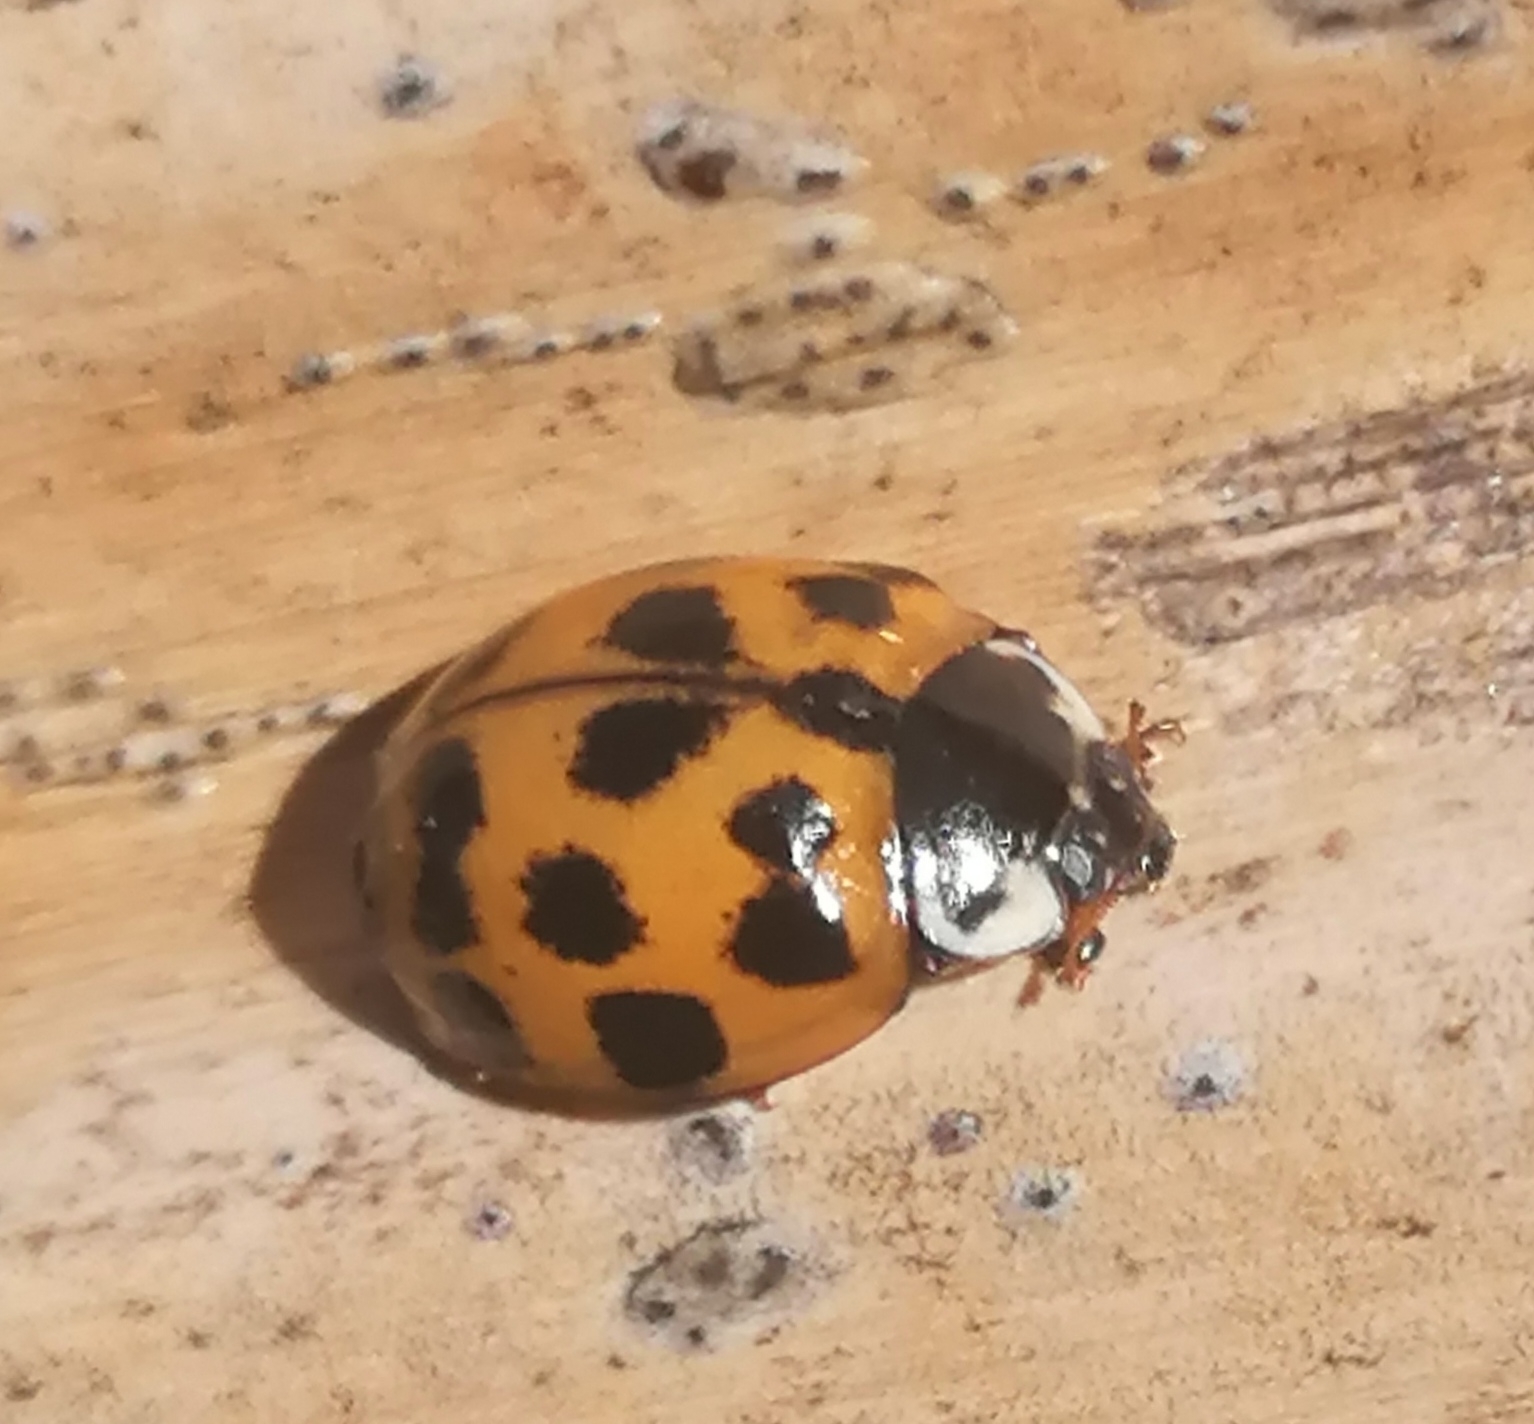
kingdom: Animalia
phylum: Arthropoda
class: Insecta
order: Coleoptera
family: Coccinellidae
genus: Harmonia
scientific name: Harmonia axyridis
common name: Harlequin ladybird
